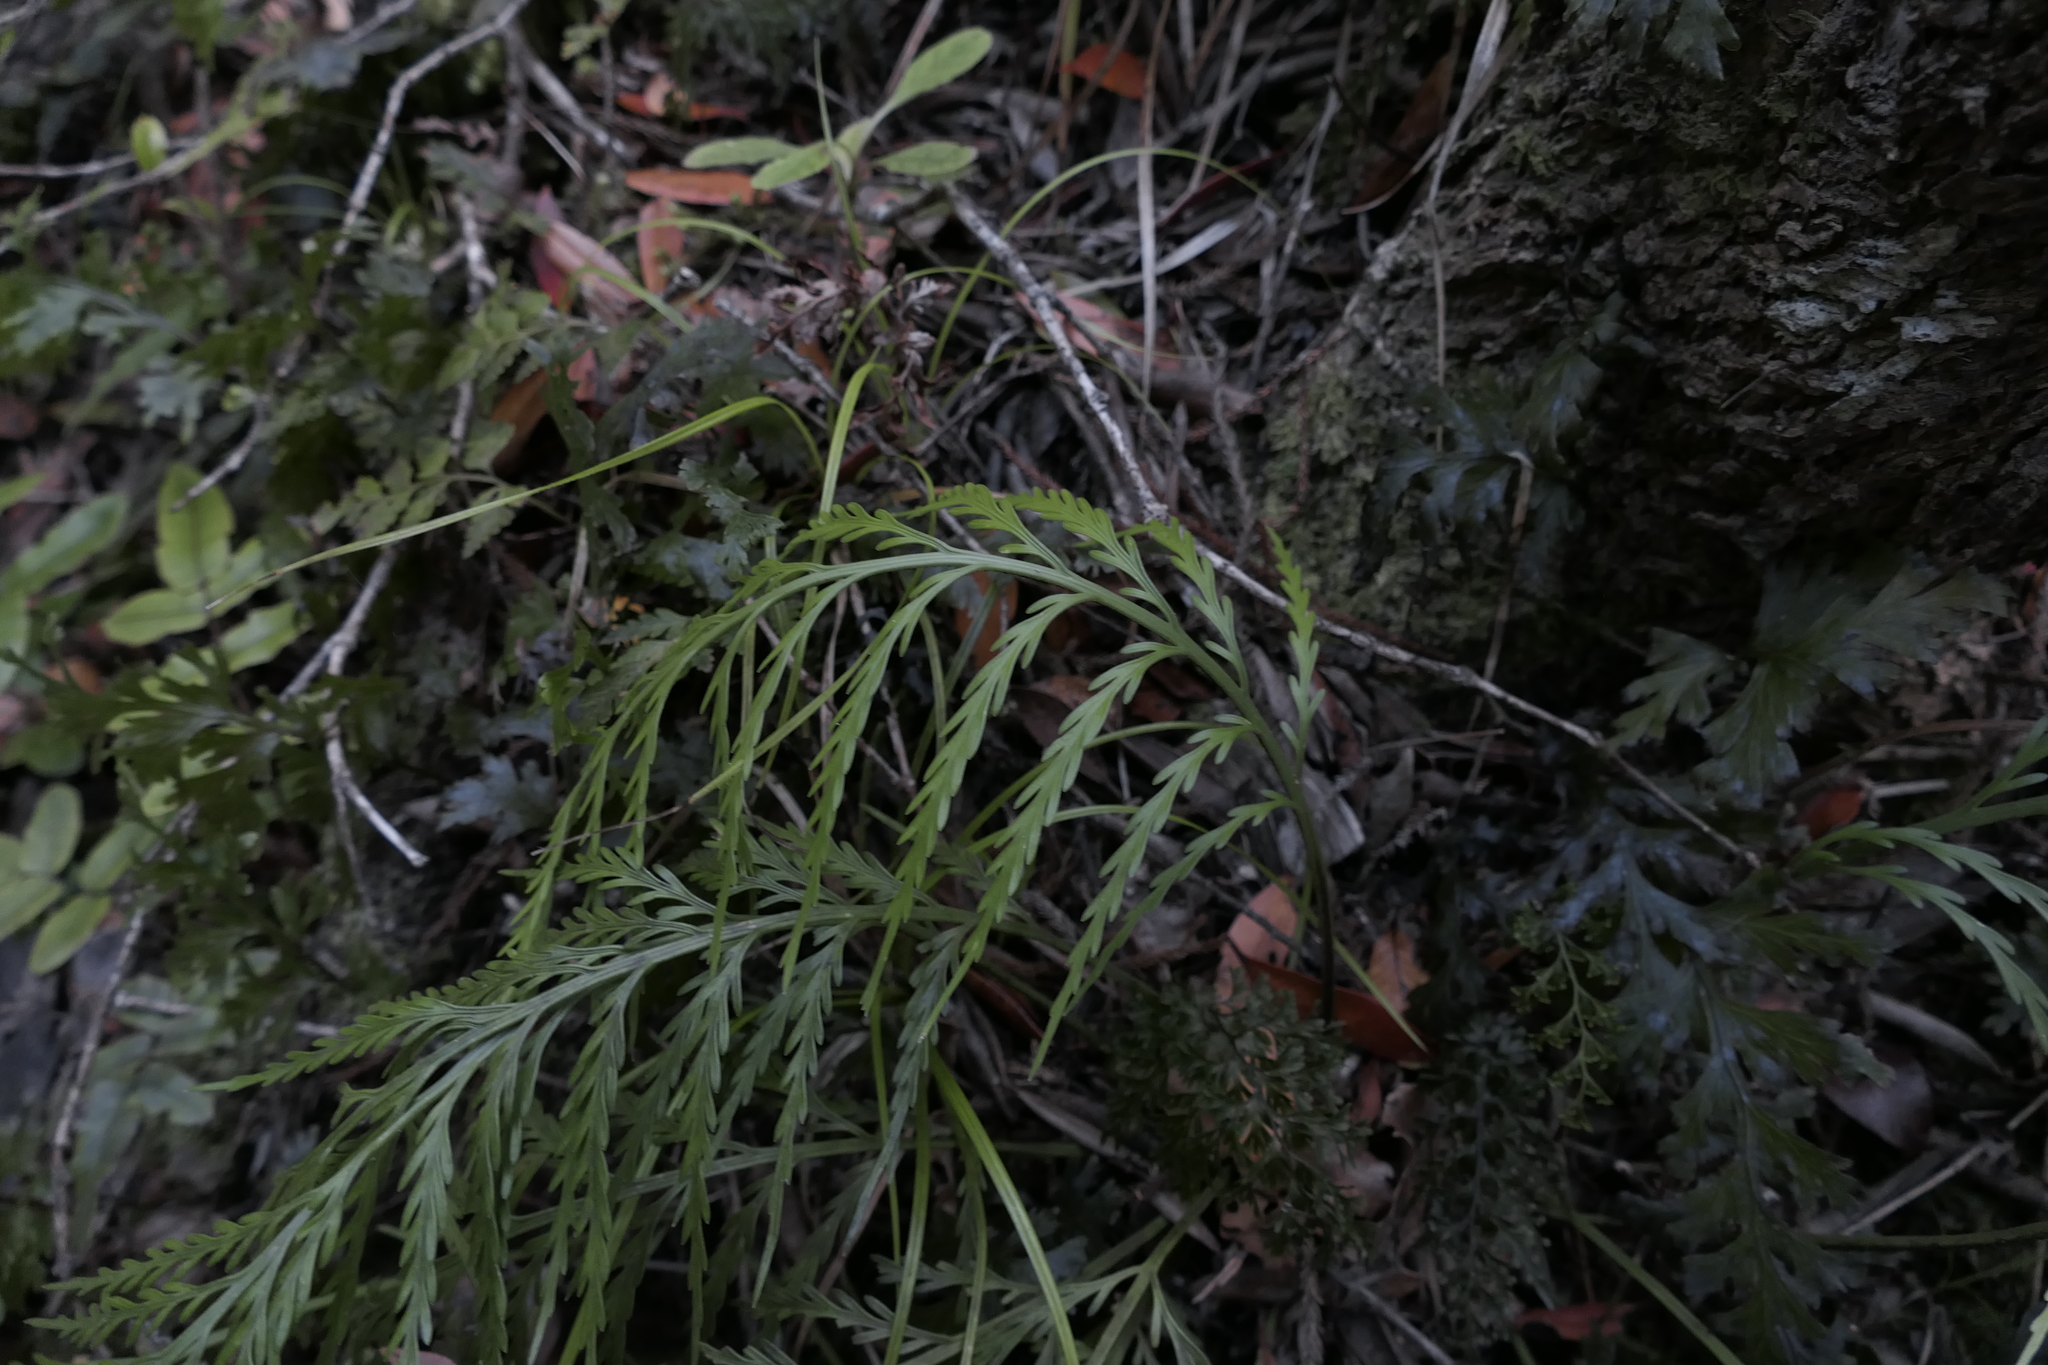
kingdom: Plantae
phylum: Tracheophyta
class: Polypodiopsida
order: Polypodiales
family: Aspleniaceae
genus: Asplenium
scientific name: Asplenium flaccidum
